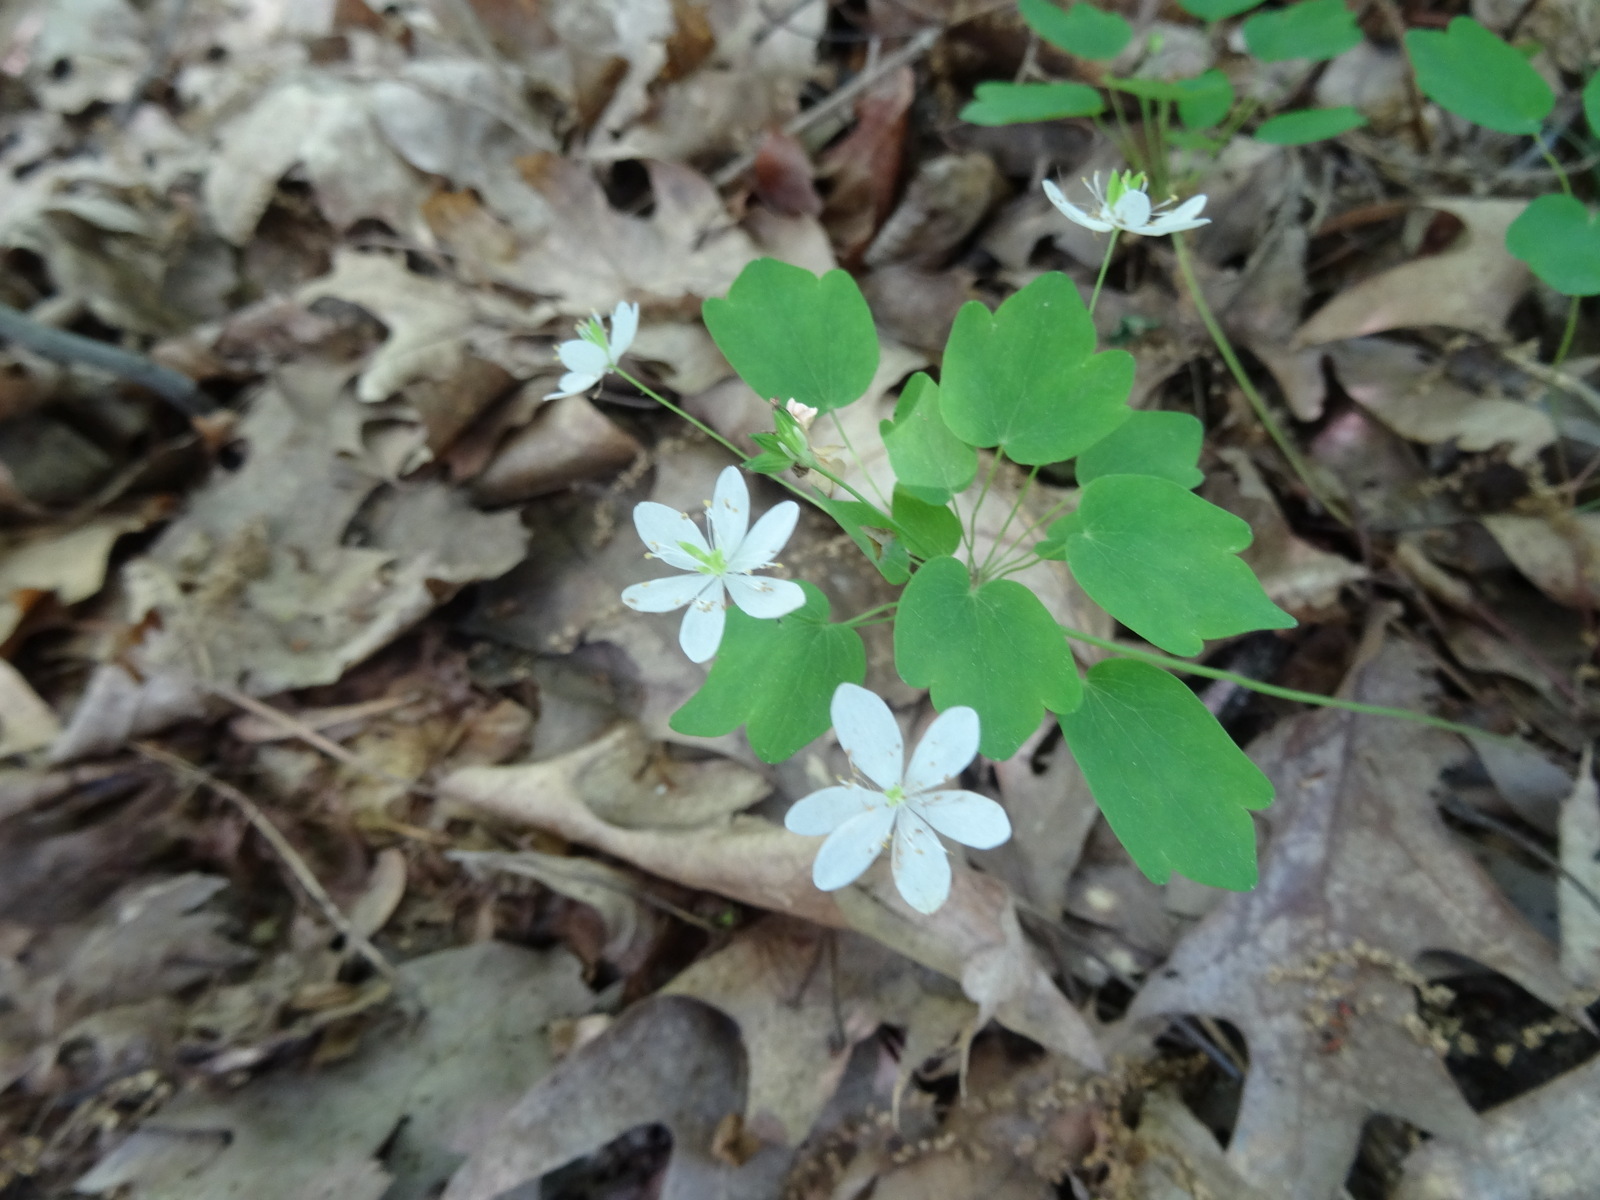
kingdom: Plantae
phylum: Tracheophyta
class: Magnoliopsida
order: Ranunculales
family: Ranunculaceae
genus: Thalictrum
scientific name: Thalictrum thalictroides
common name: Rue-anemone
